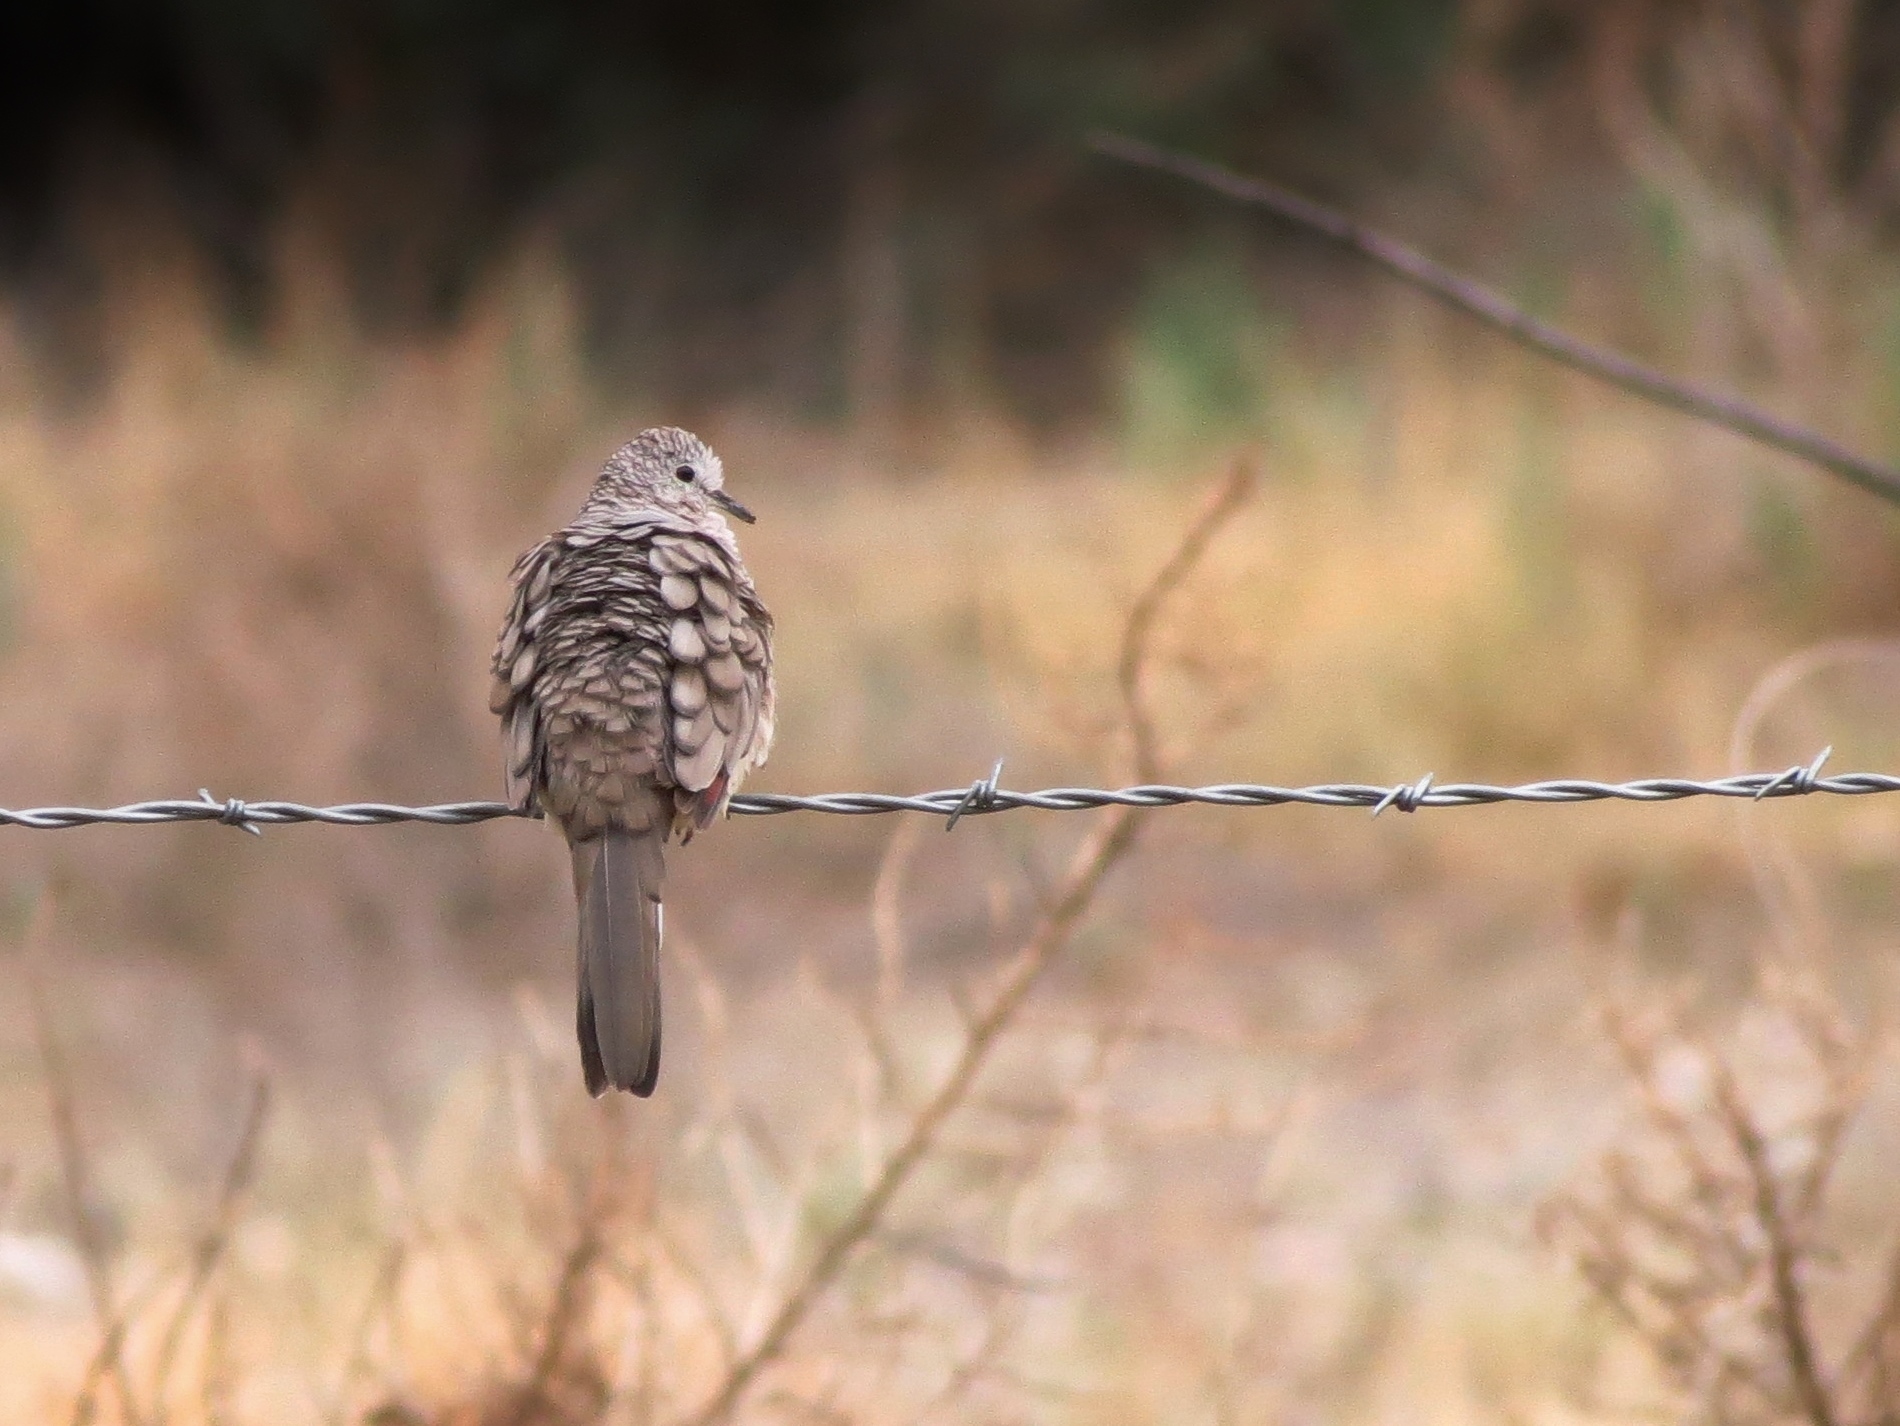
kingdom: Animalia
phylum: Chordata
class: Aves
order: Columbiformes
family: Columbidae
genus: Columbina
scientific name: Columbina inca
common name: Inca dove
